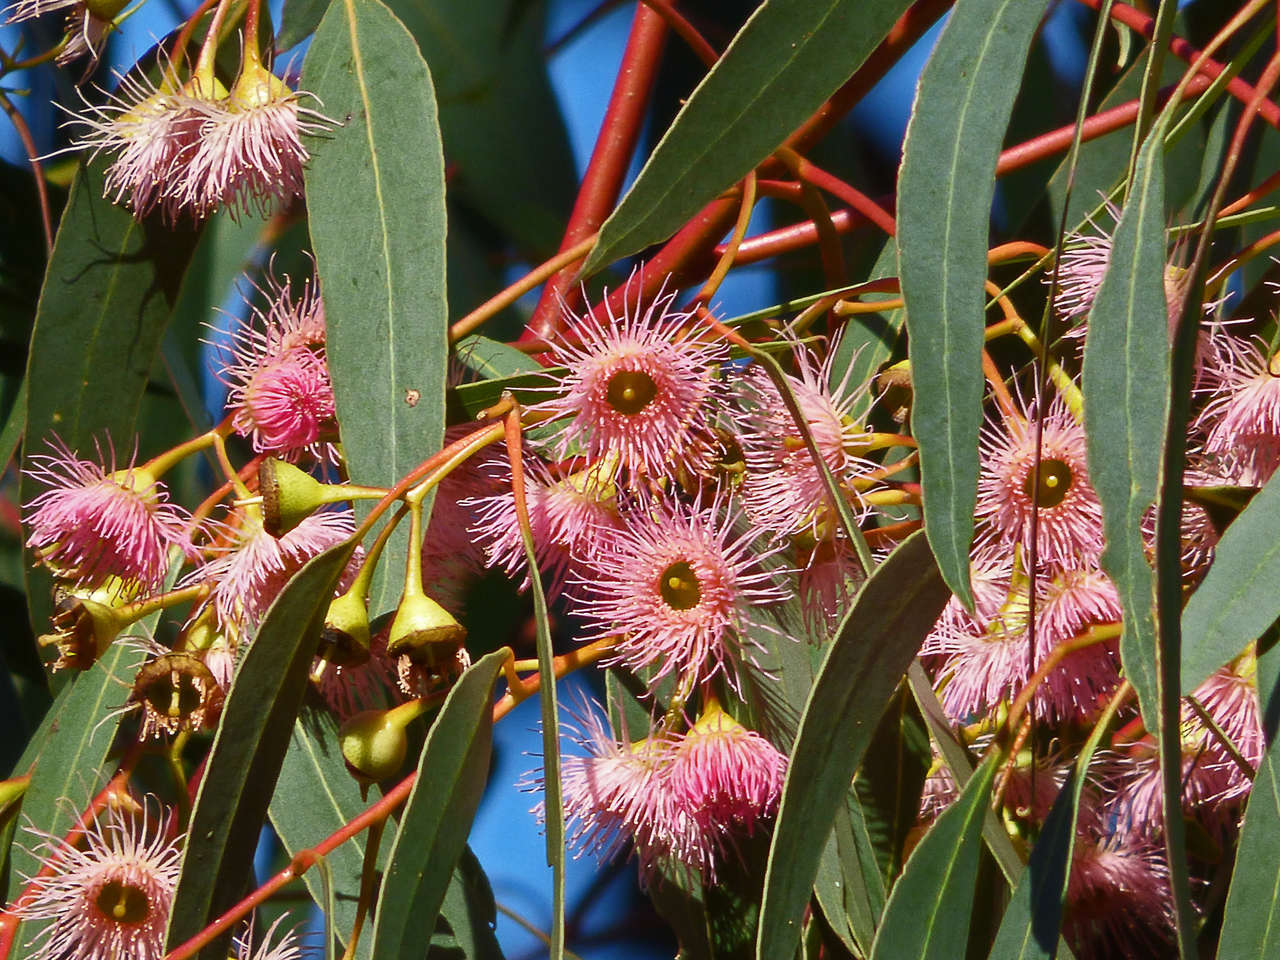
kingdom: Plantae
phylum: Tracheophyta
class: Magnoliopsida
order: Myrtales
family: Myrtaceae
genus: Eucalyptus
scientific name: Eucalyptus tricarpa
